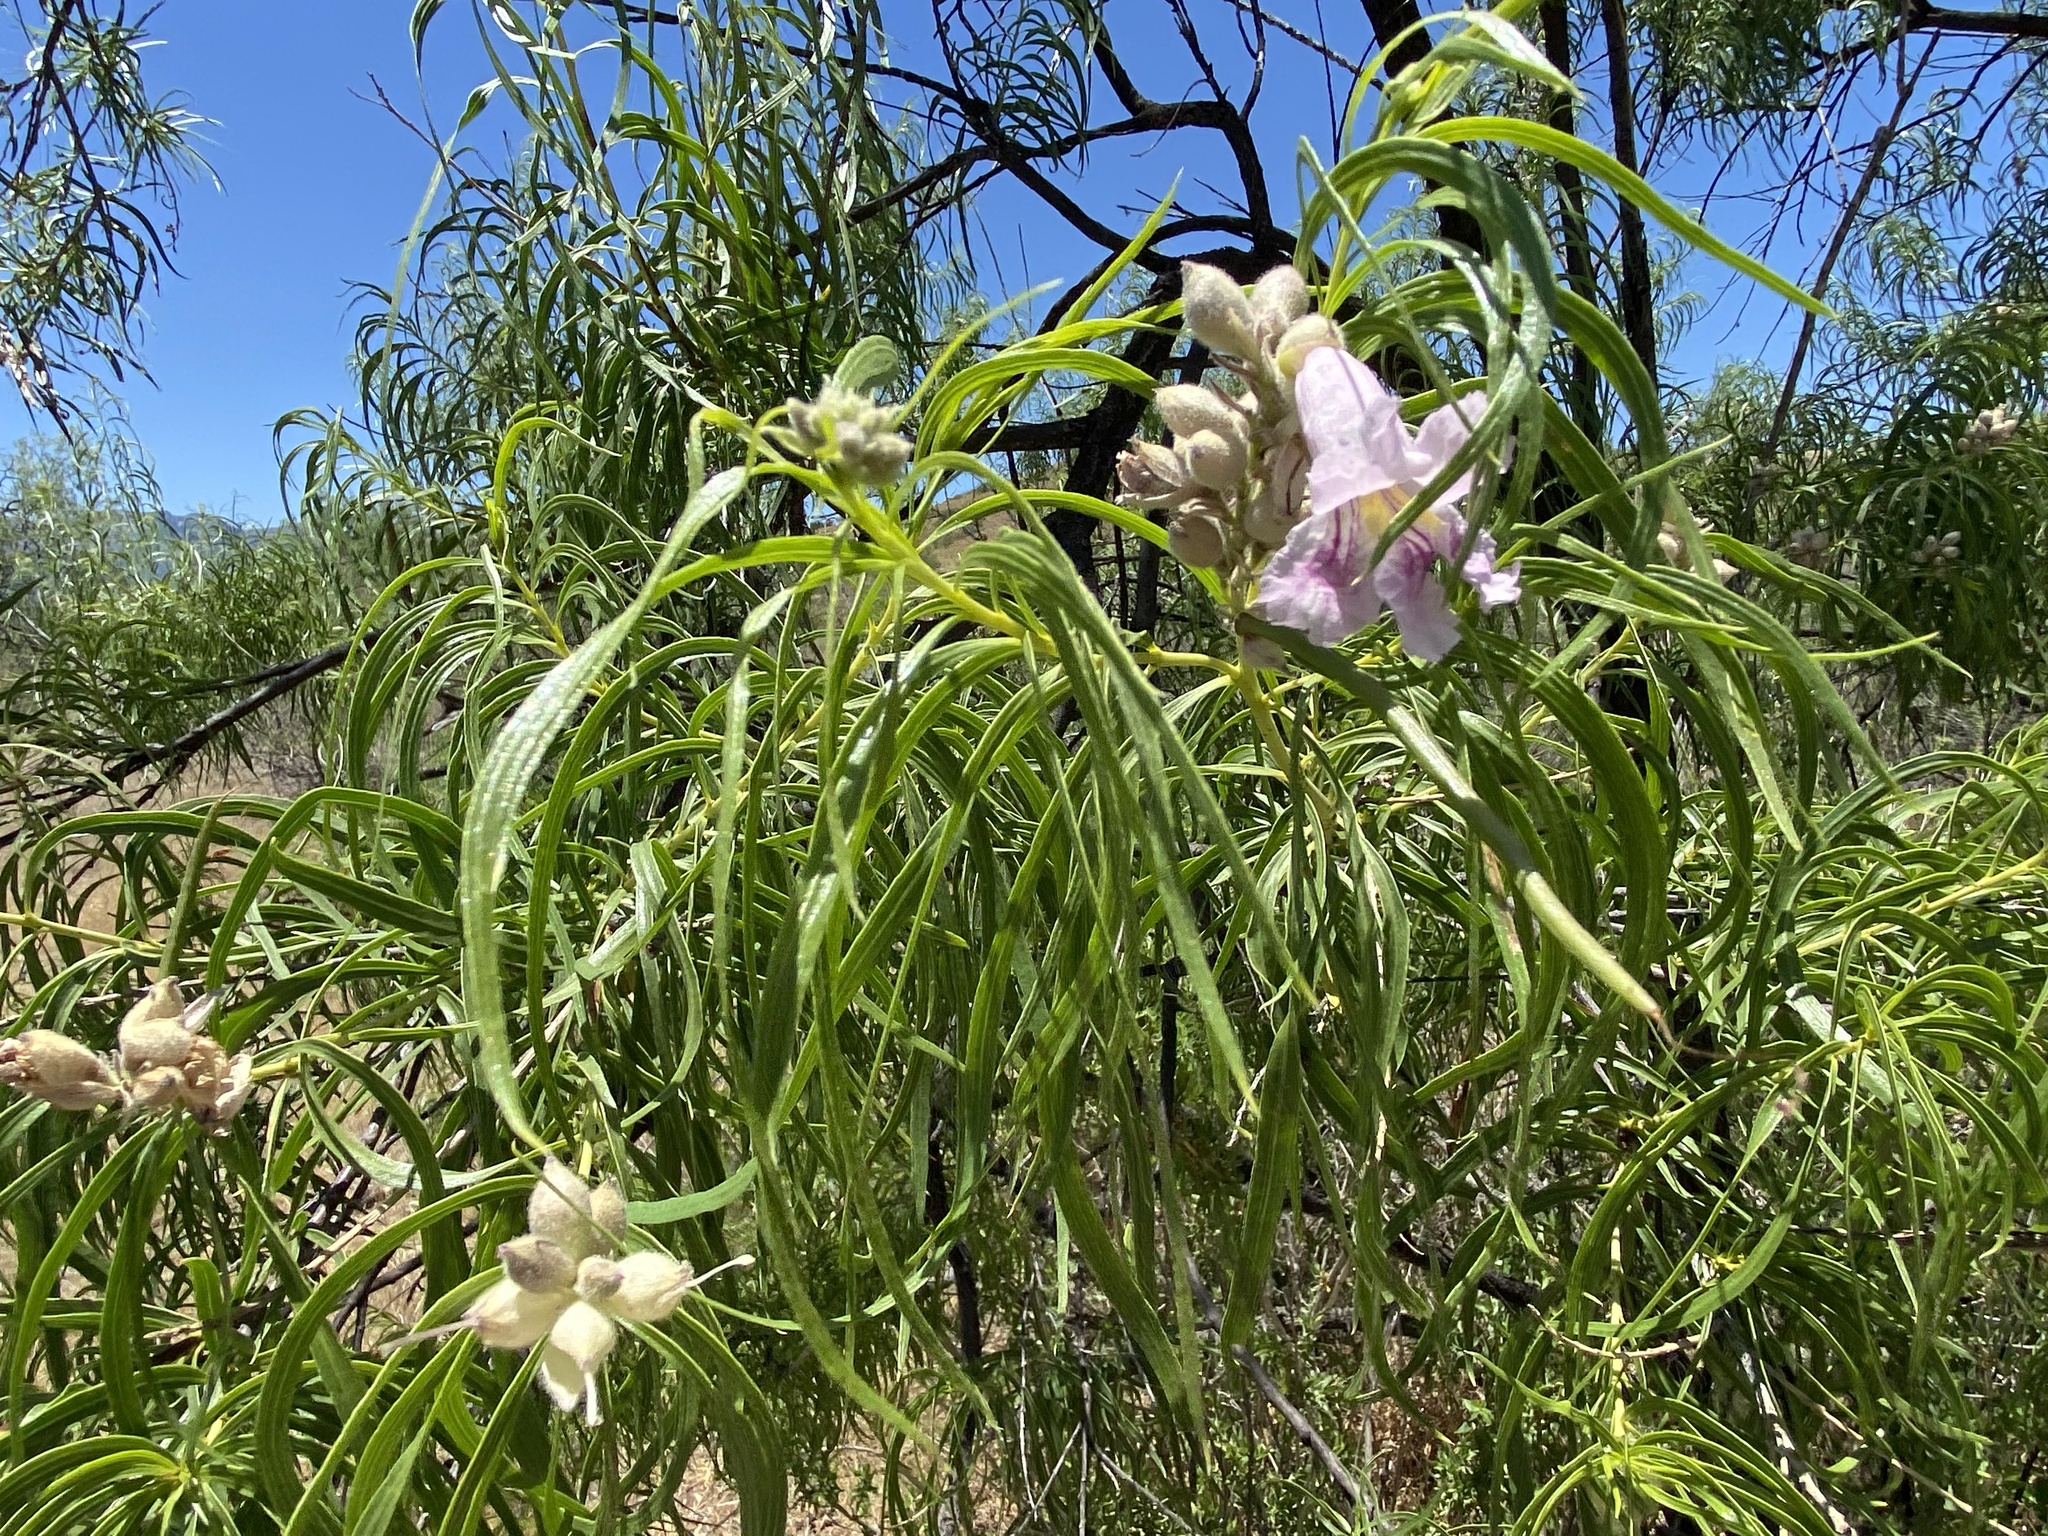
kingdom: Plantae
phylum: Tracheophyta
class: Magnoliopsida
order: Lamiales
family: Bignoniaceae
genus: Chilopsis
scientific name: Chilopsis linearis
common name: Desert-willow
